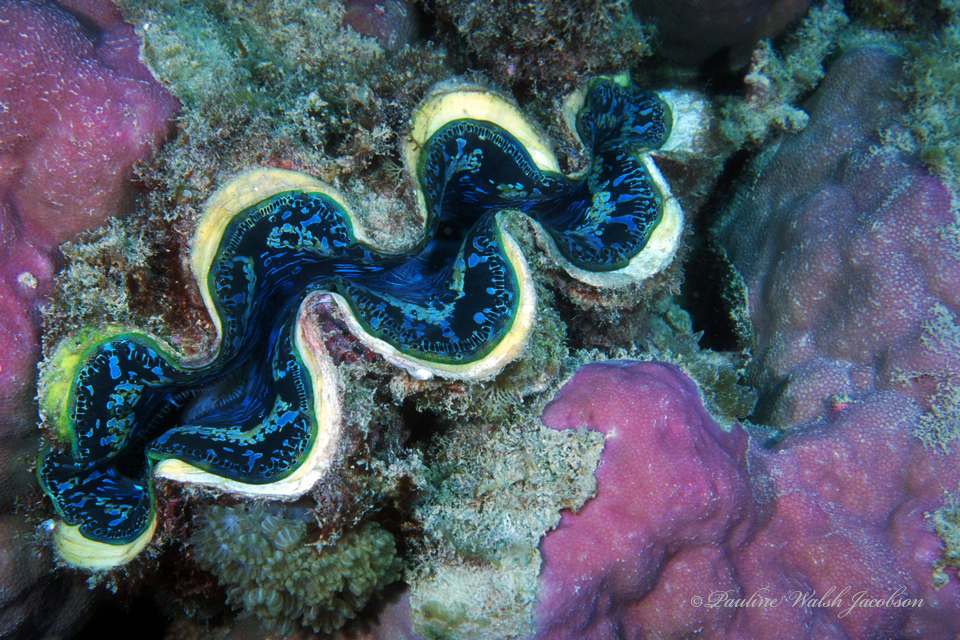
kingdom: Animalia
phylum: Mollusca
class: Bivalvia
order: Cardiida
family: Cardiidae
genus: Tridacna
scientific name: Tridacna maxima
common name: Small giant clam
